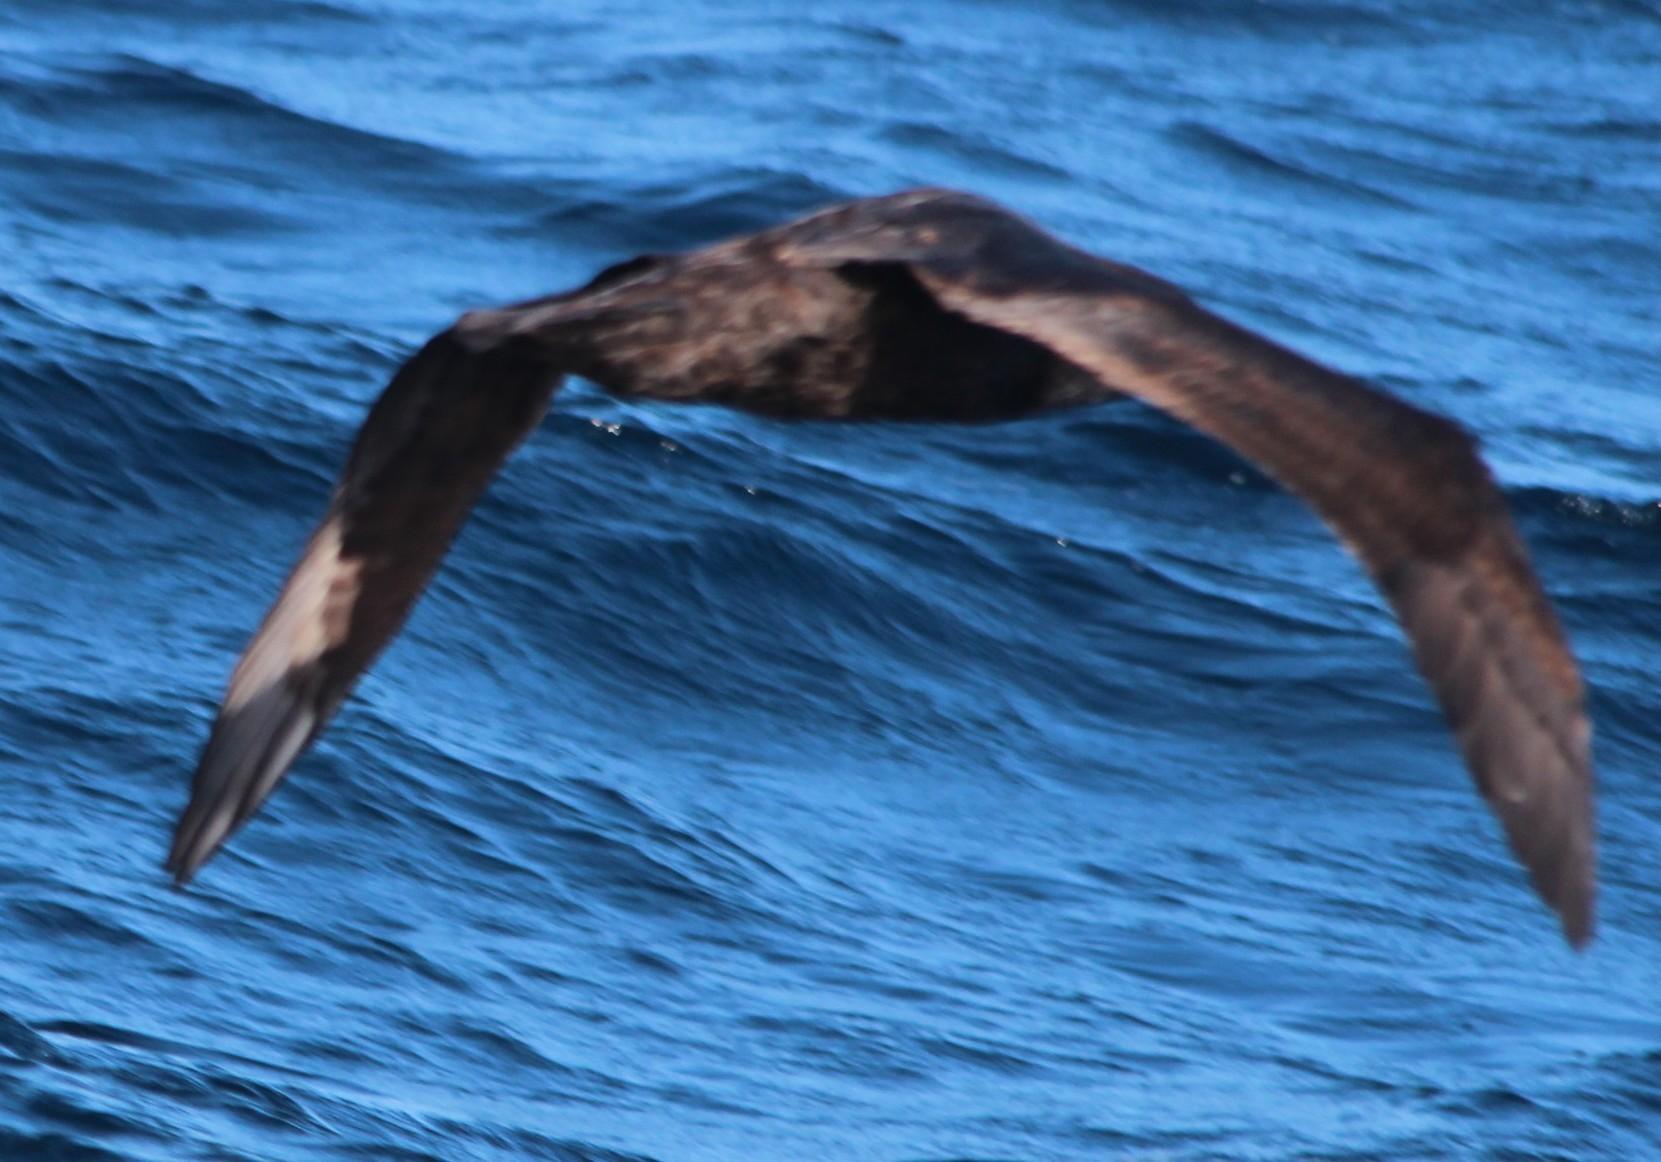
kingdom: Animalia
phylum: Chordata
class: Aves
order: Procellariiformes
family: Procellariidae
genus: Macronectes
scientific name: Macronectes giganteus
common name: Southern giant petrel
